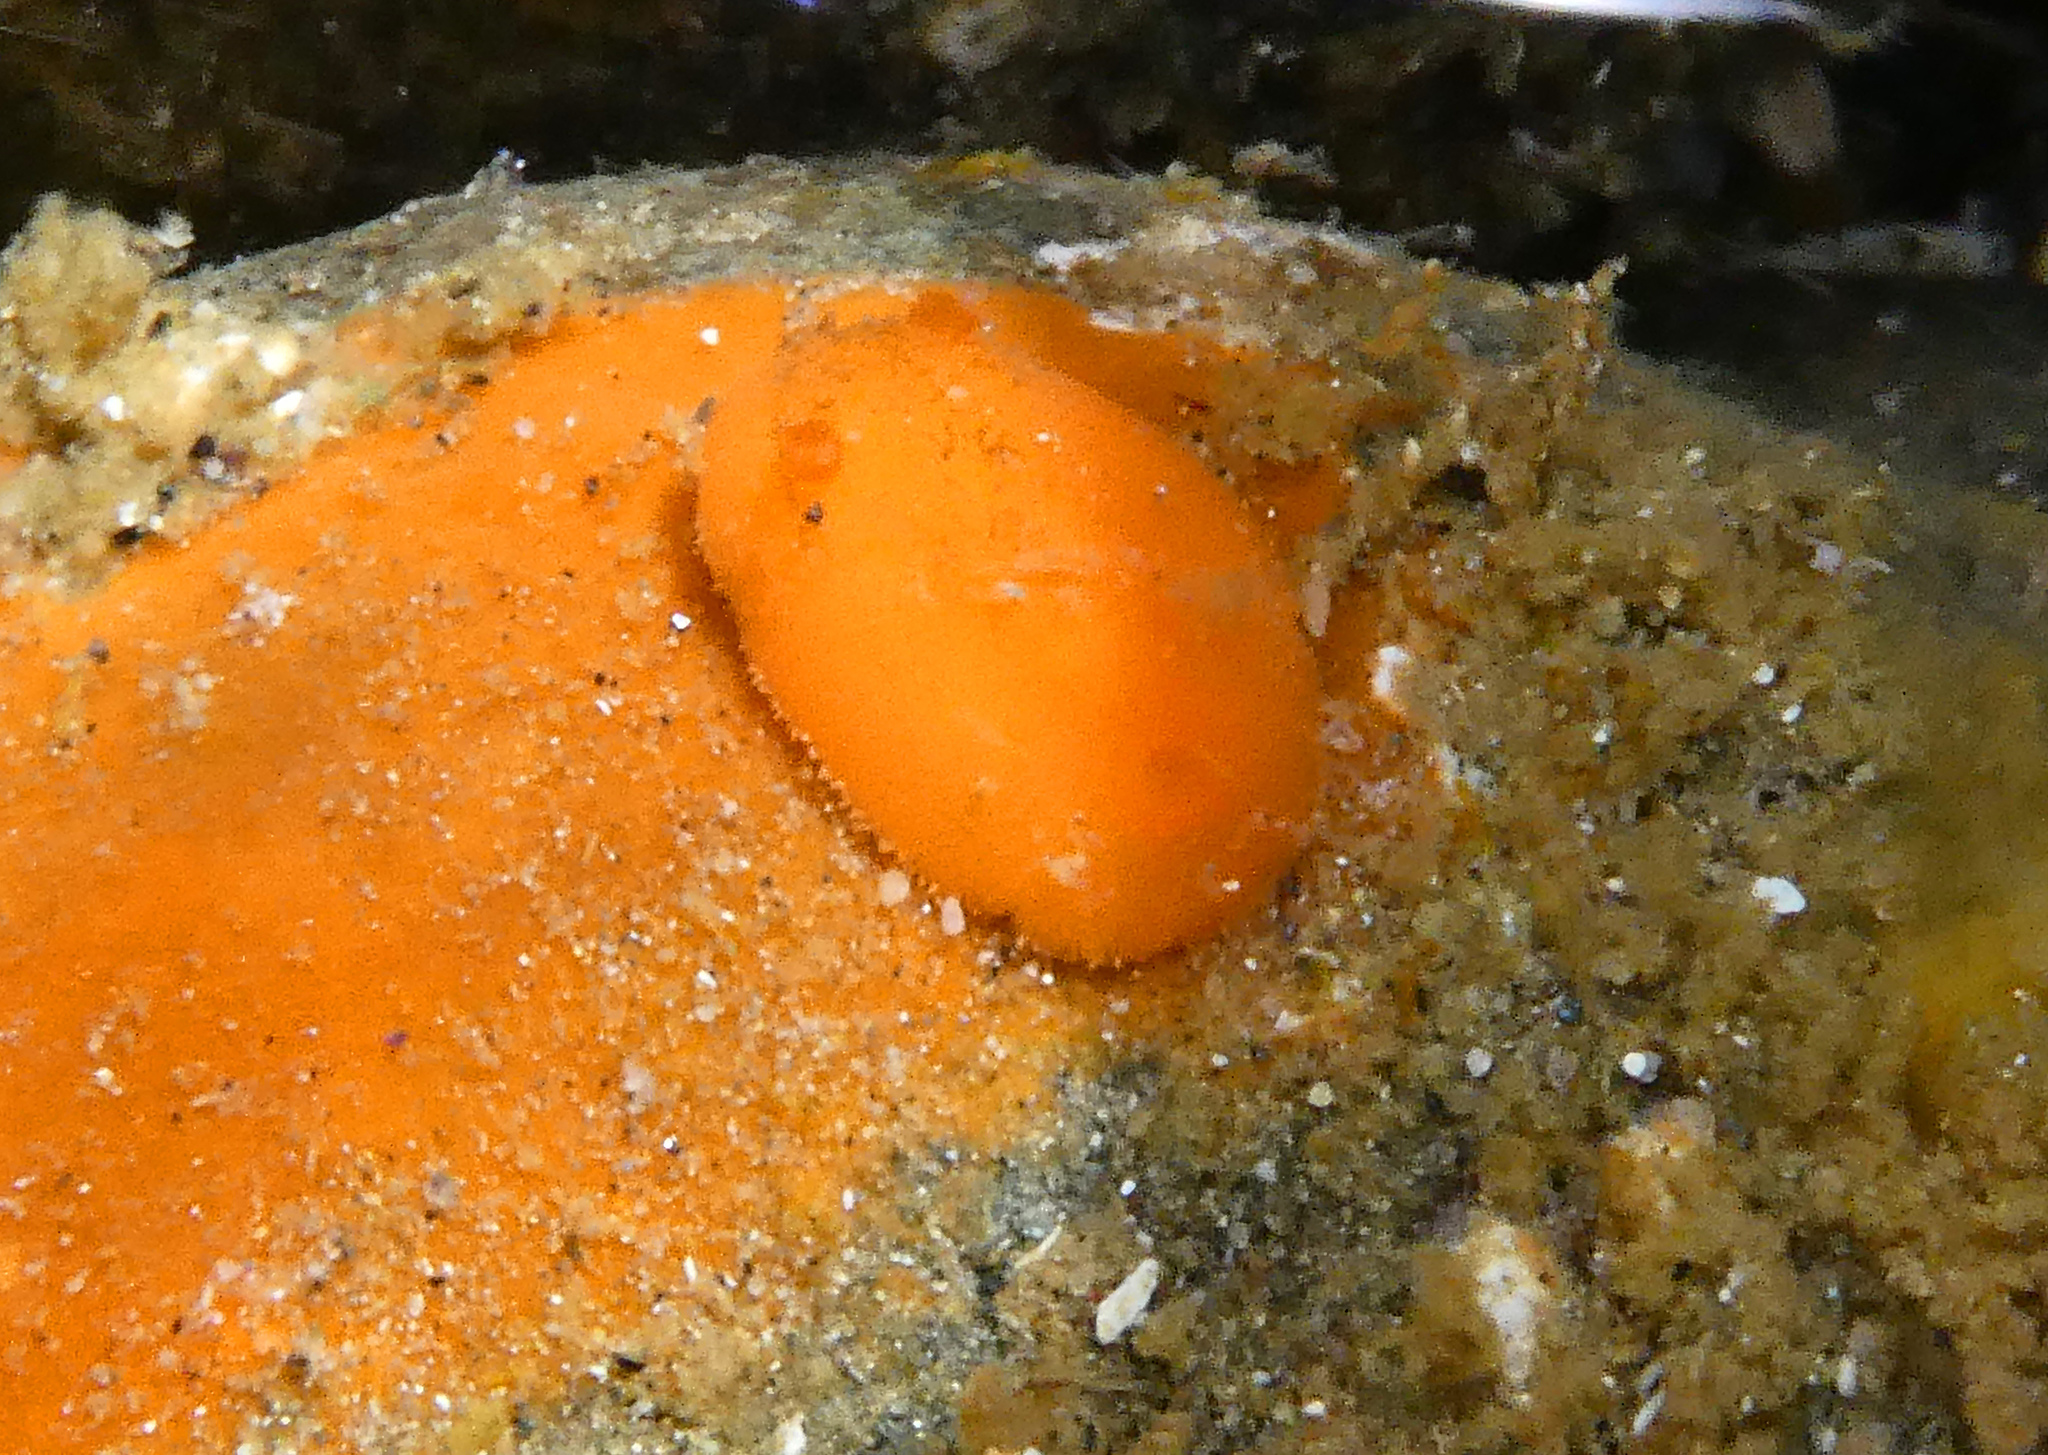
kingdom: Animalia
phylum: Mollusca
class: Gastropoda
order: Nudibranchia
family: Discodorididae
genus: Rostanga
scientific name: Rostanga pulchra
